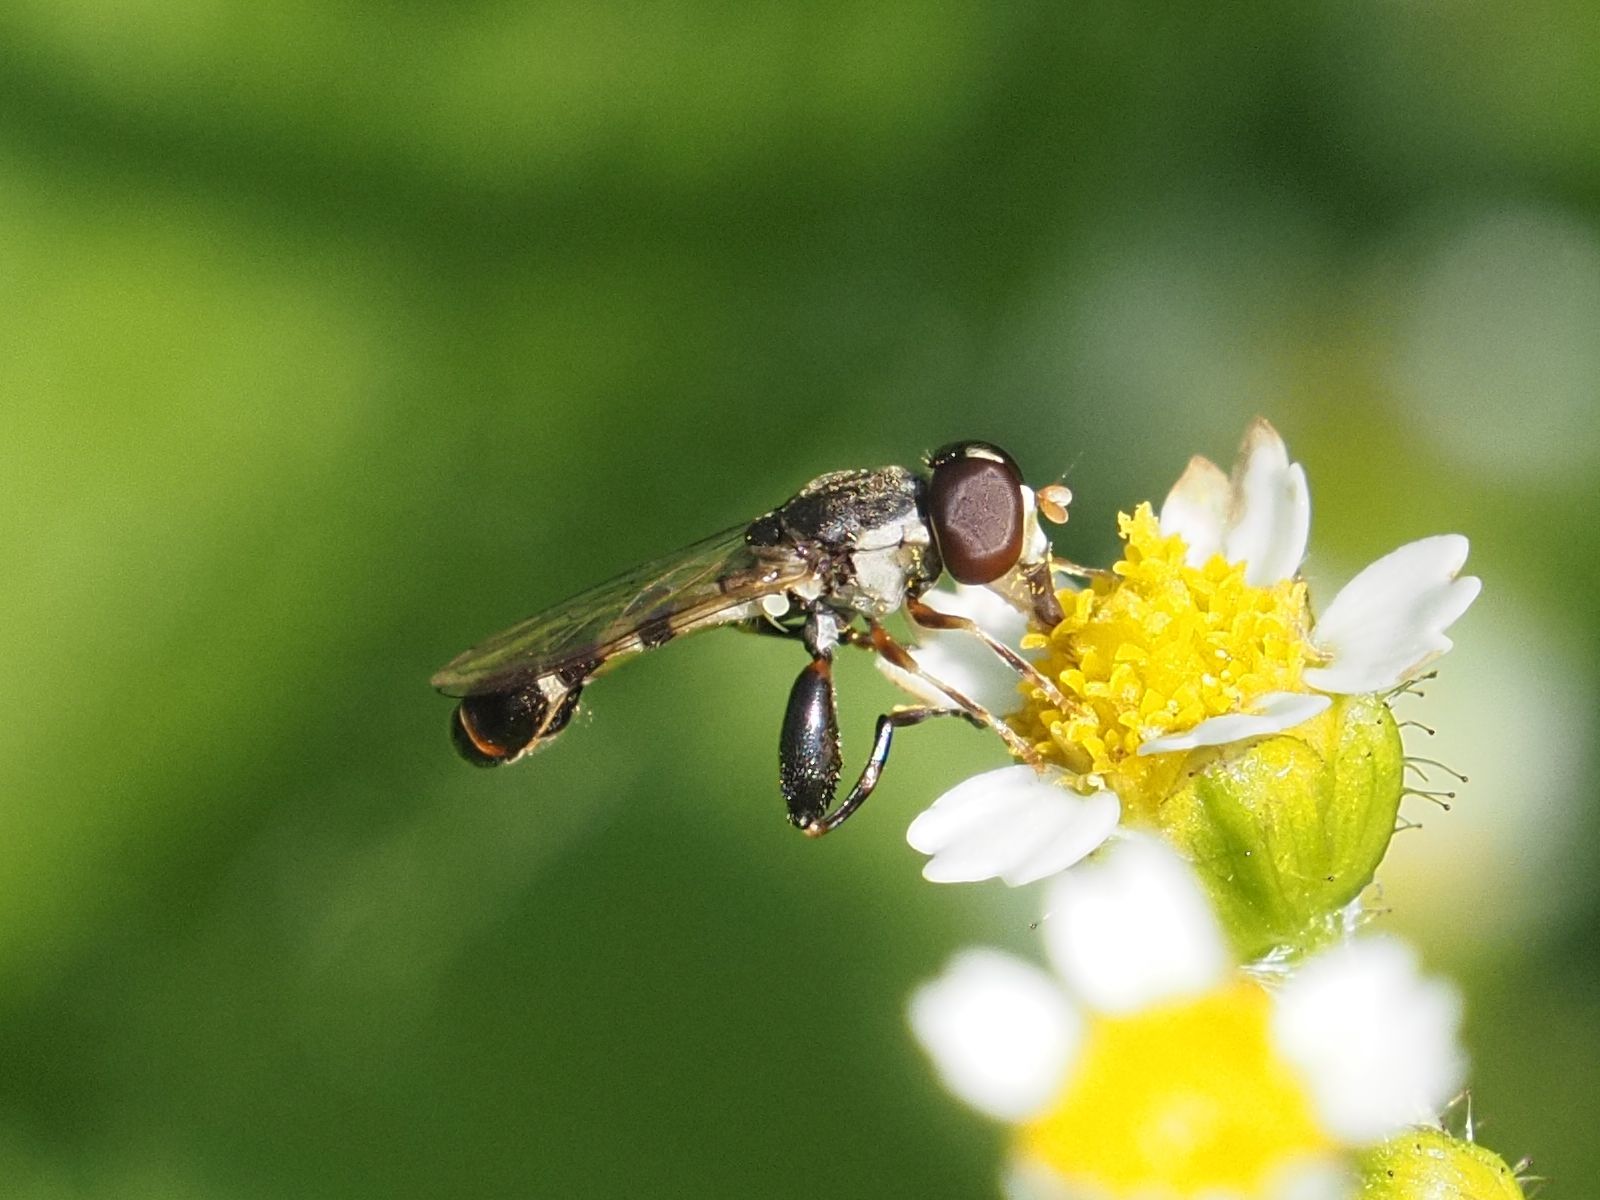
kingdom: Animalia
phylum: Arthropoda
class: Insecta
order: Diptera
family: Syrphidae
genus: Syritta
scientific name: Syritta pipiens
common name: Hover fly
